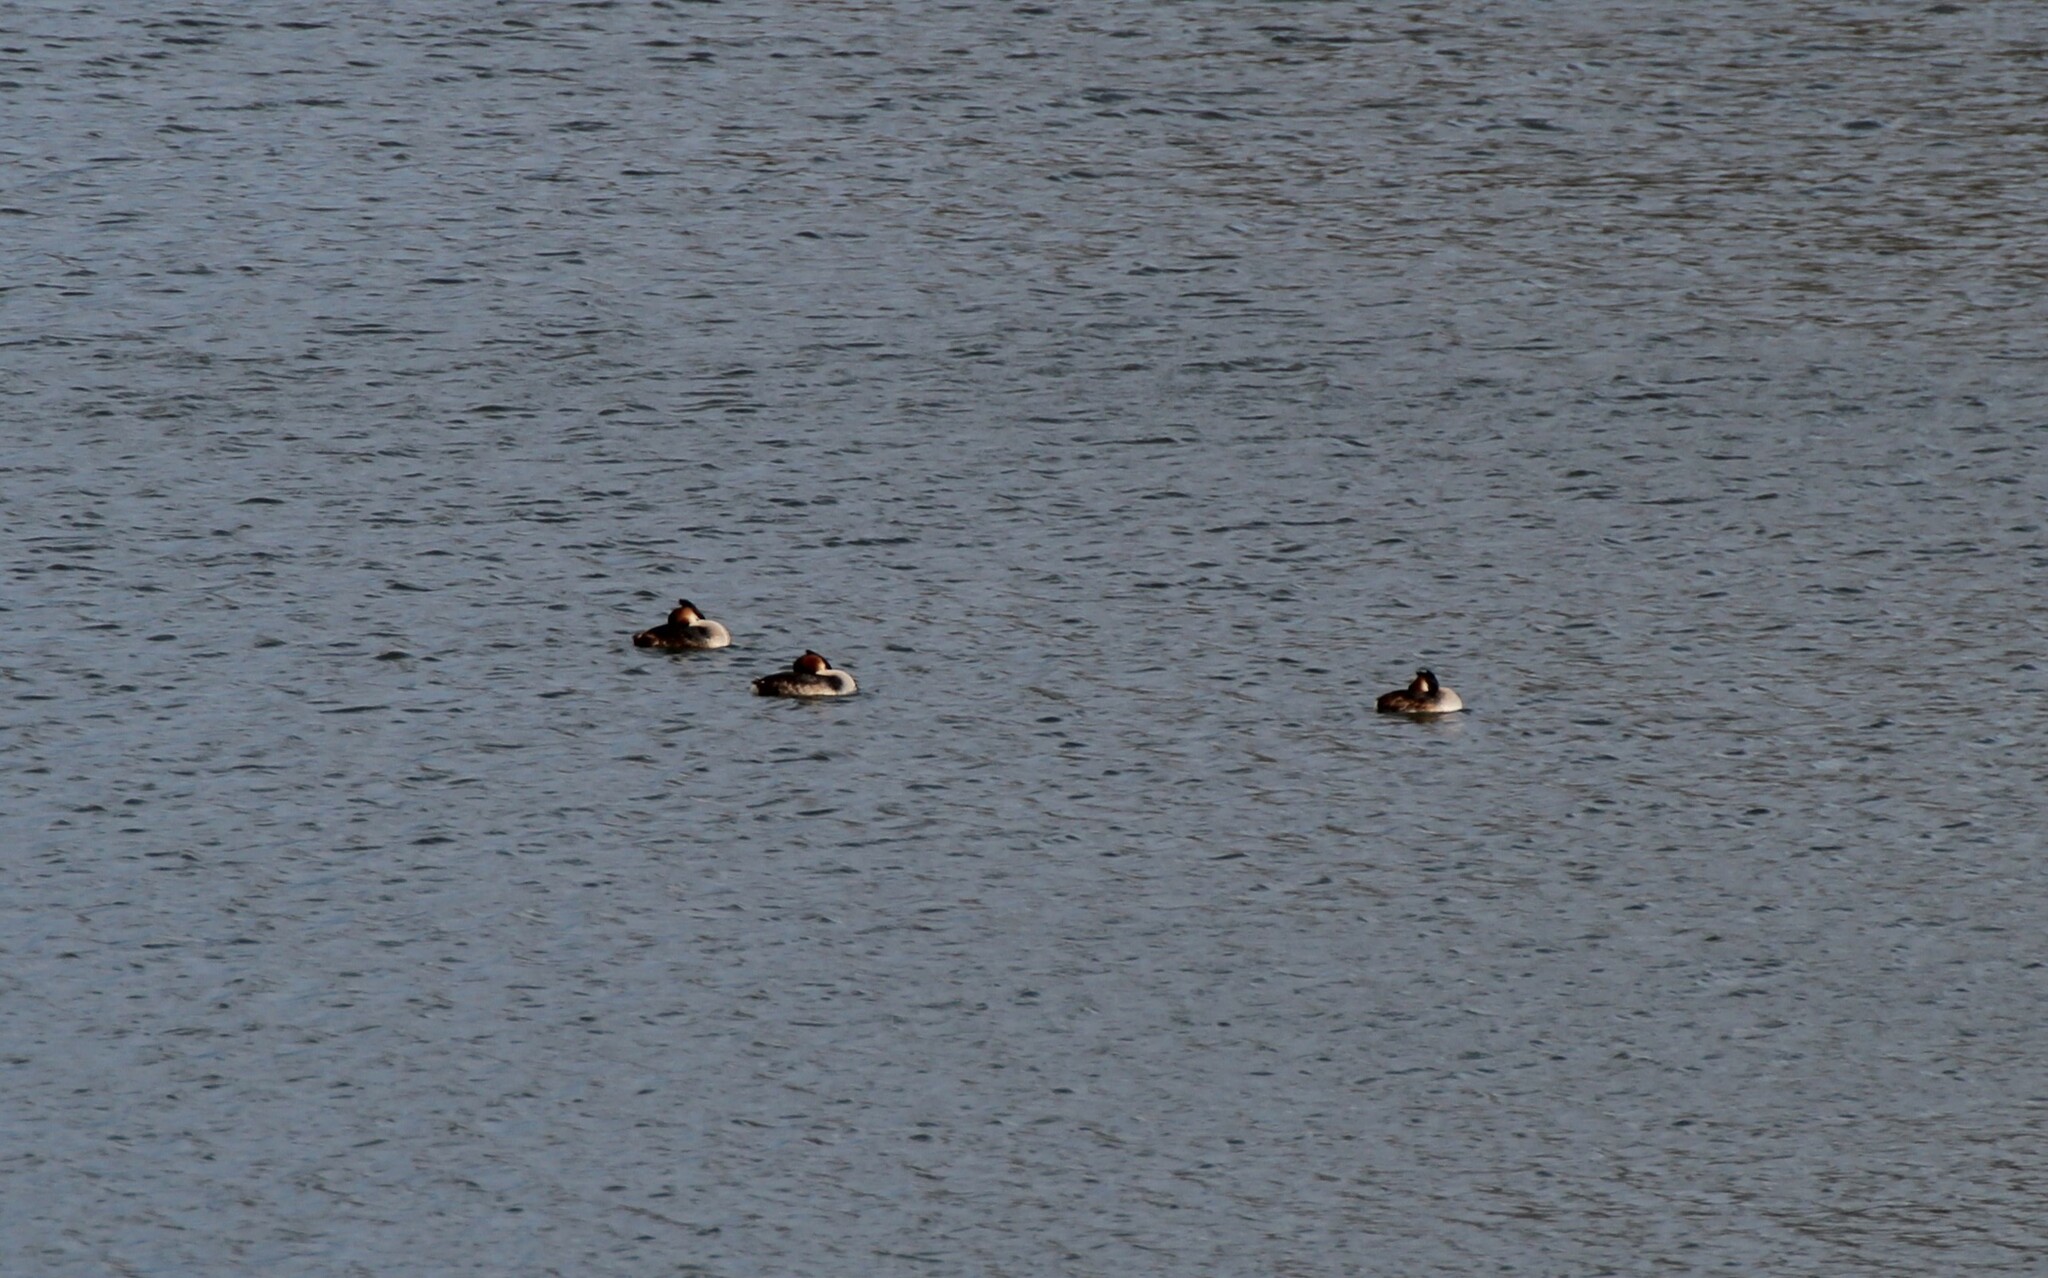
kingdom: Animalia
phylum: Chordata
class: Aves
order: Podicipediformes
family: Podicipedidae
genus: Podiceps
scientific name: Podiceps cristatus
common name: Great crested grebe
